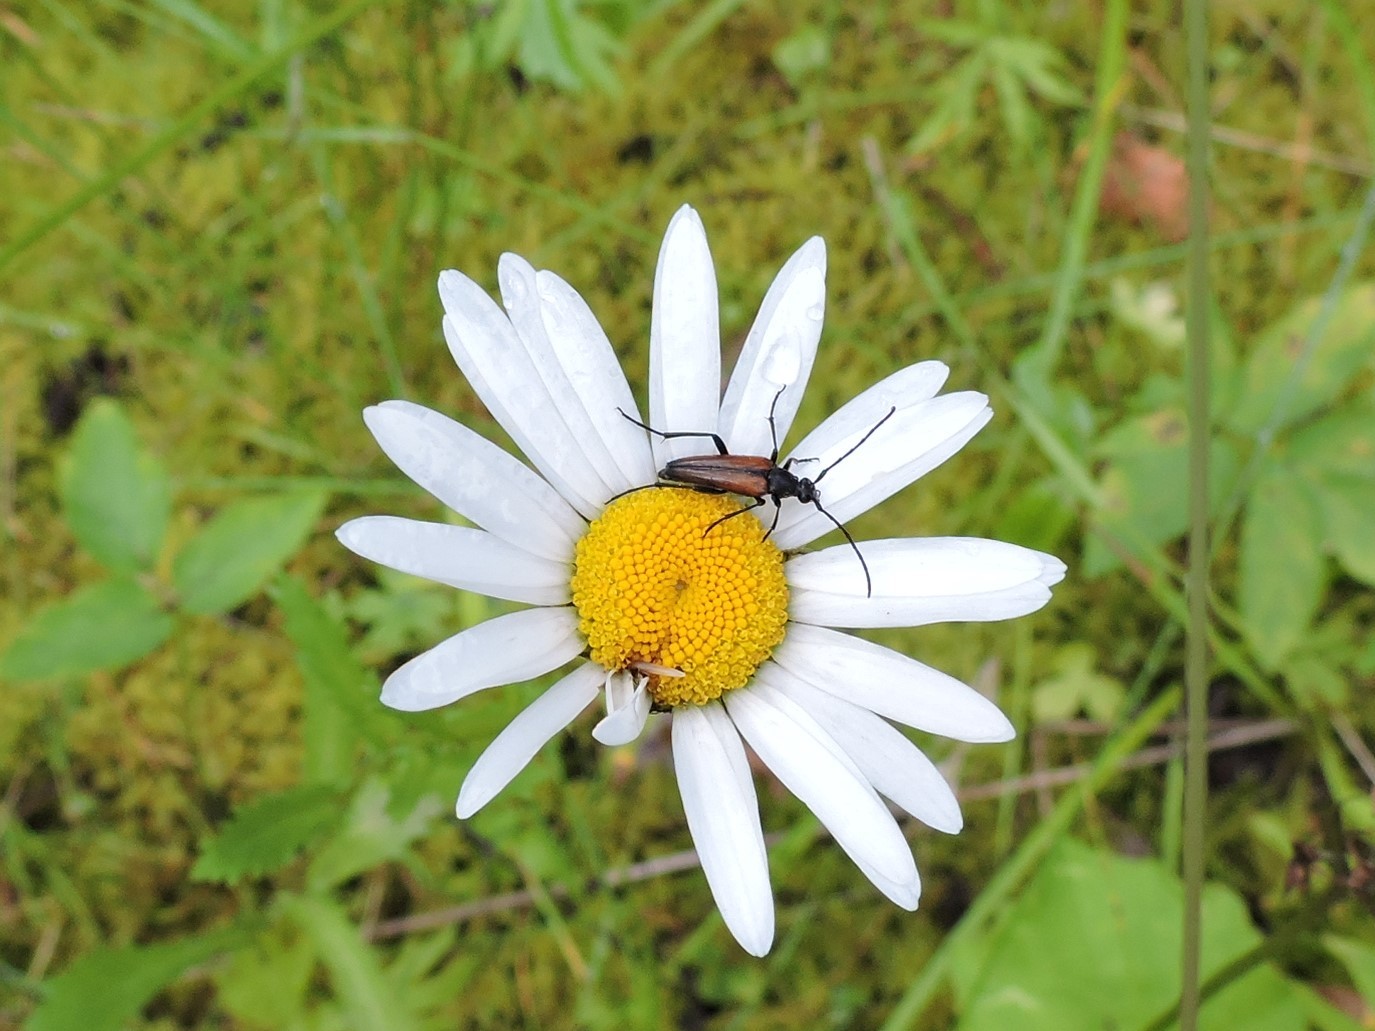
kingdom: Animalia
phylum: Arthropoda
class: Insecta
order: Coleoptera
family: Cerambycidae
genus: Stenurella
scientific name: Stenurella melanura
